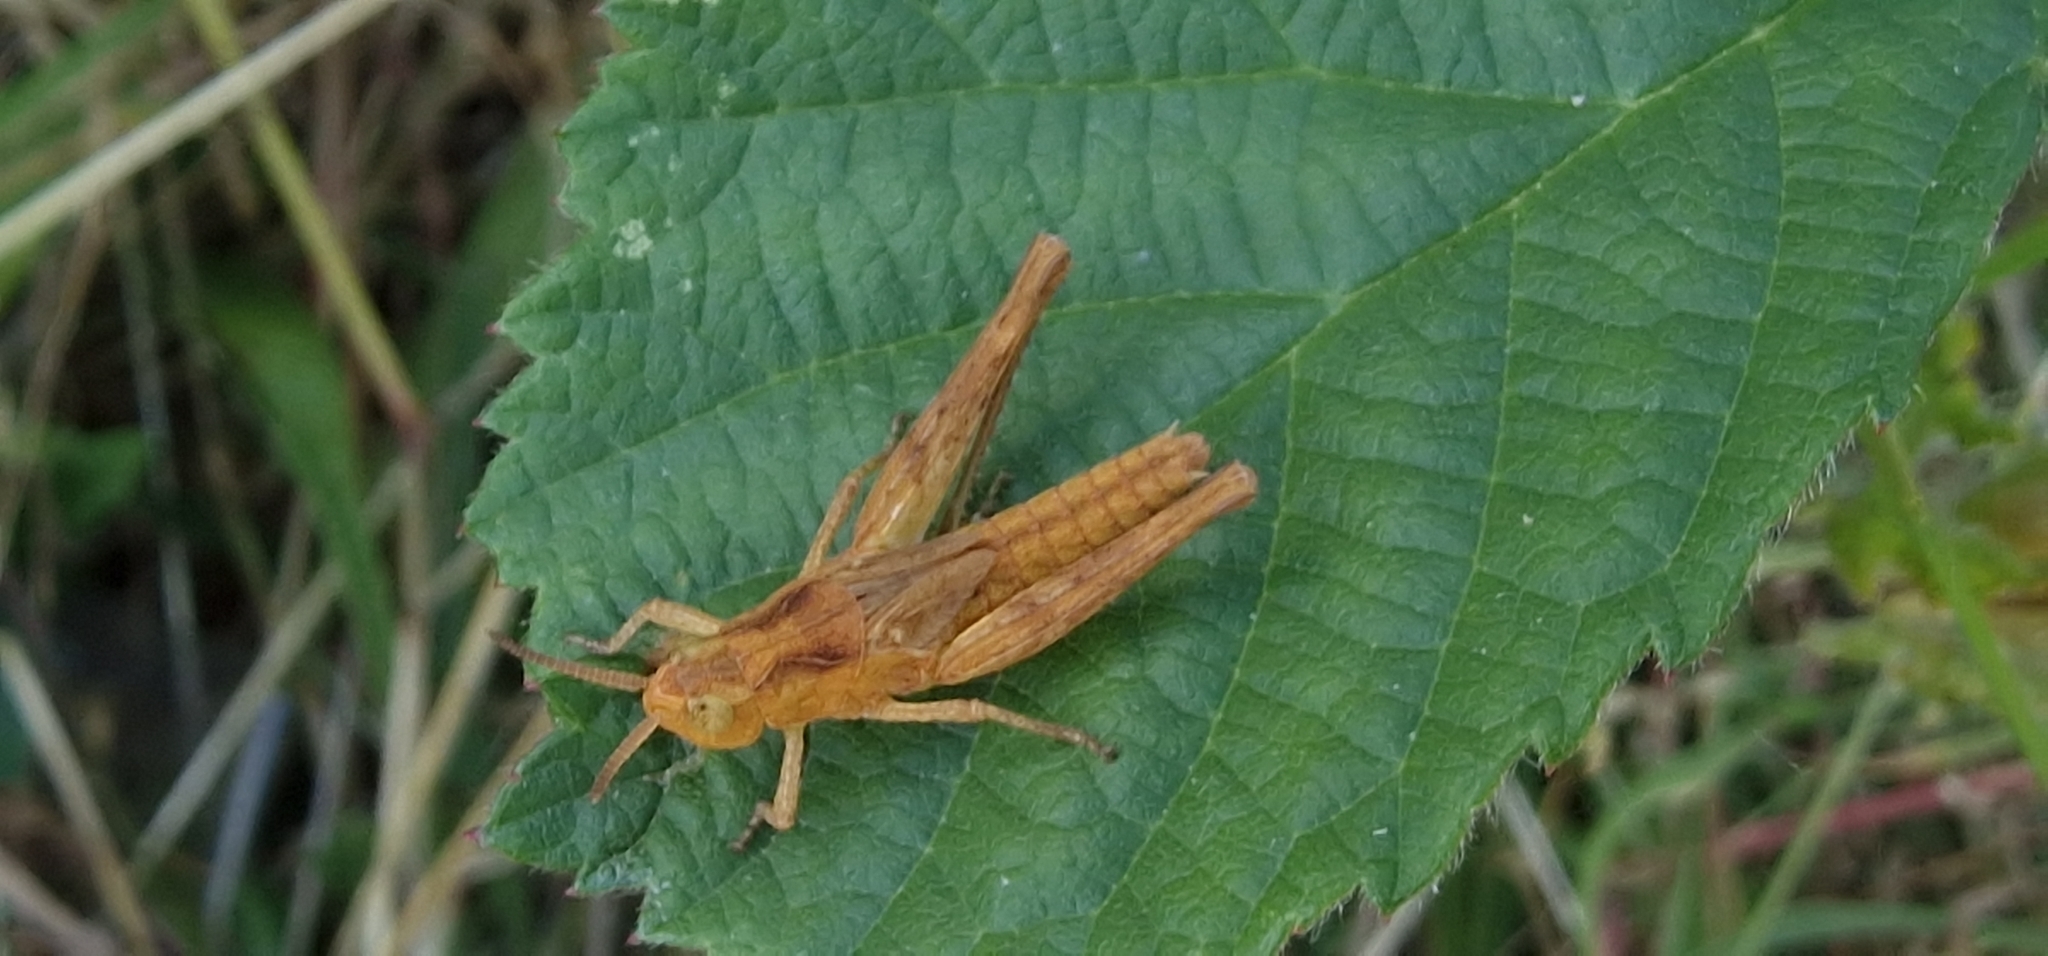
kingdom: Animalia
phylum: Arthropoda
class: Insecta
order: Orthoptera
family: Acrididae
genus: Chorthippus
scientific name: Chorthippus brunneus
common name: Field grasshopper
